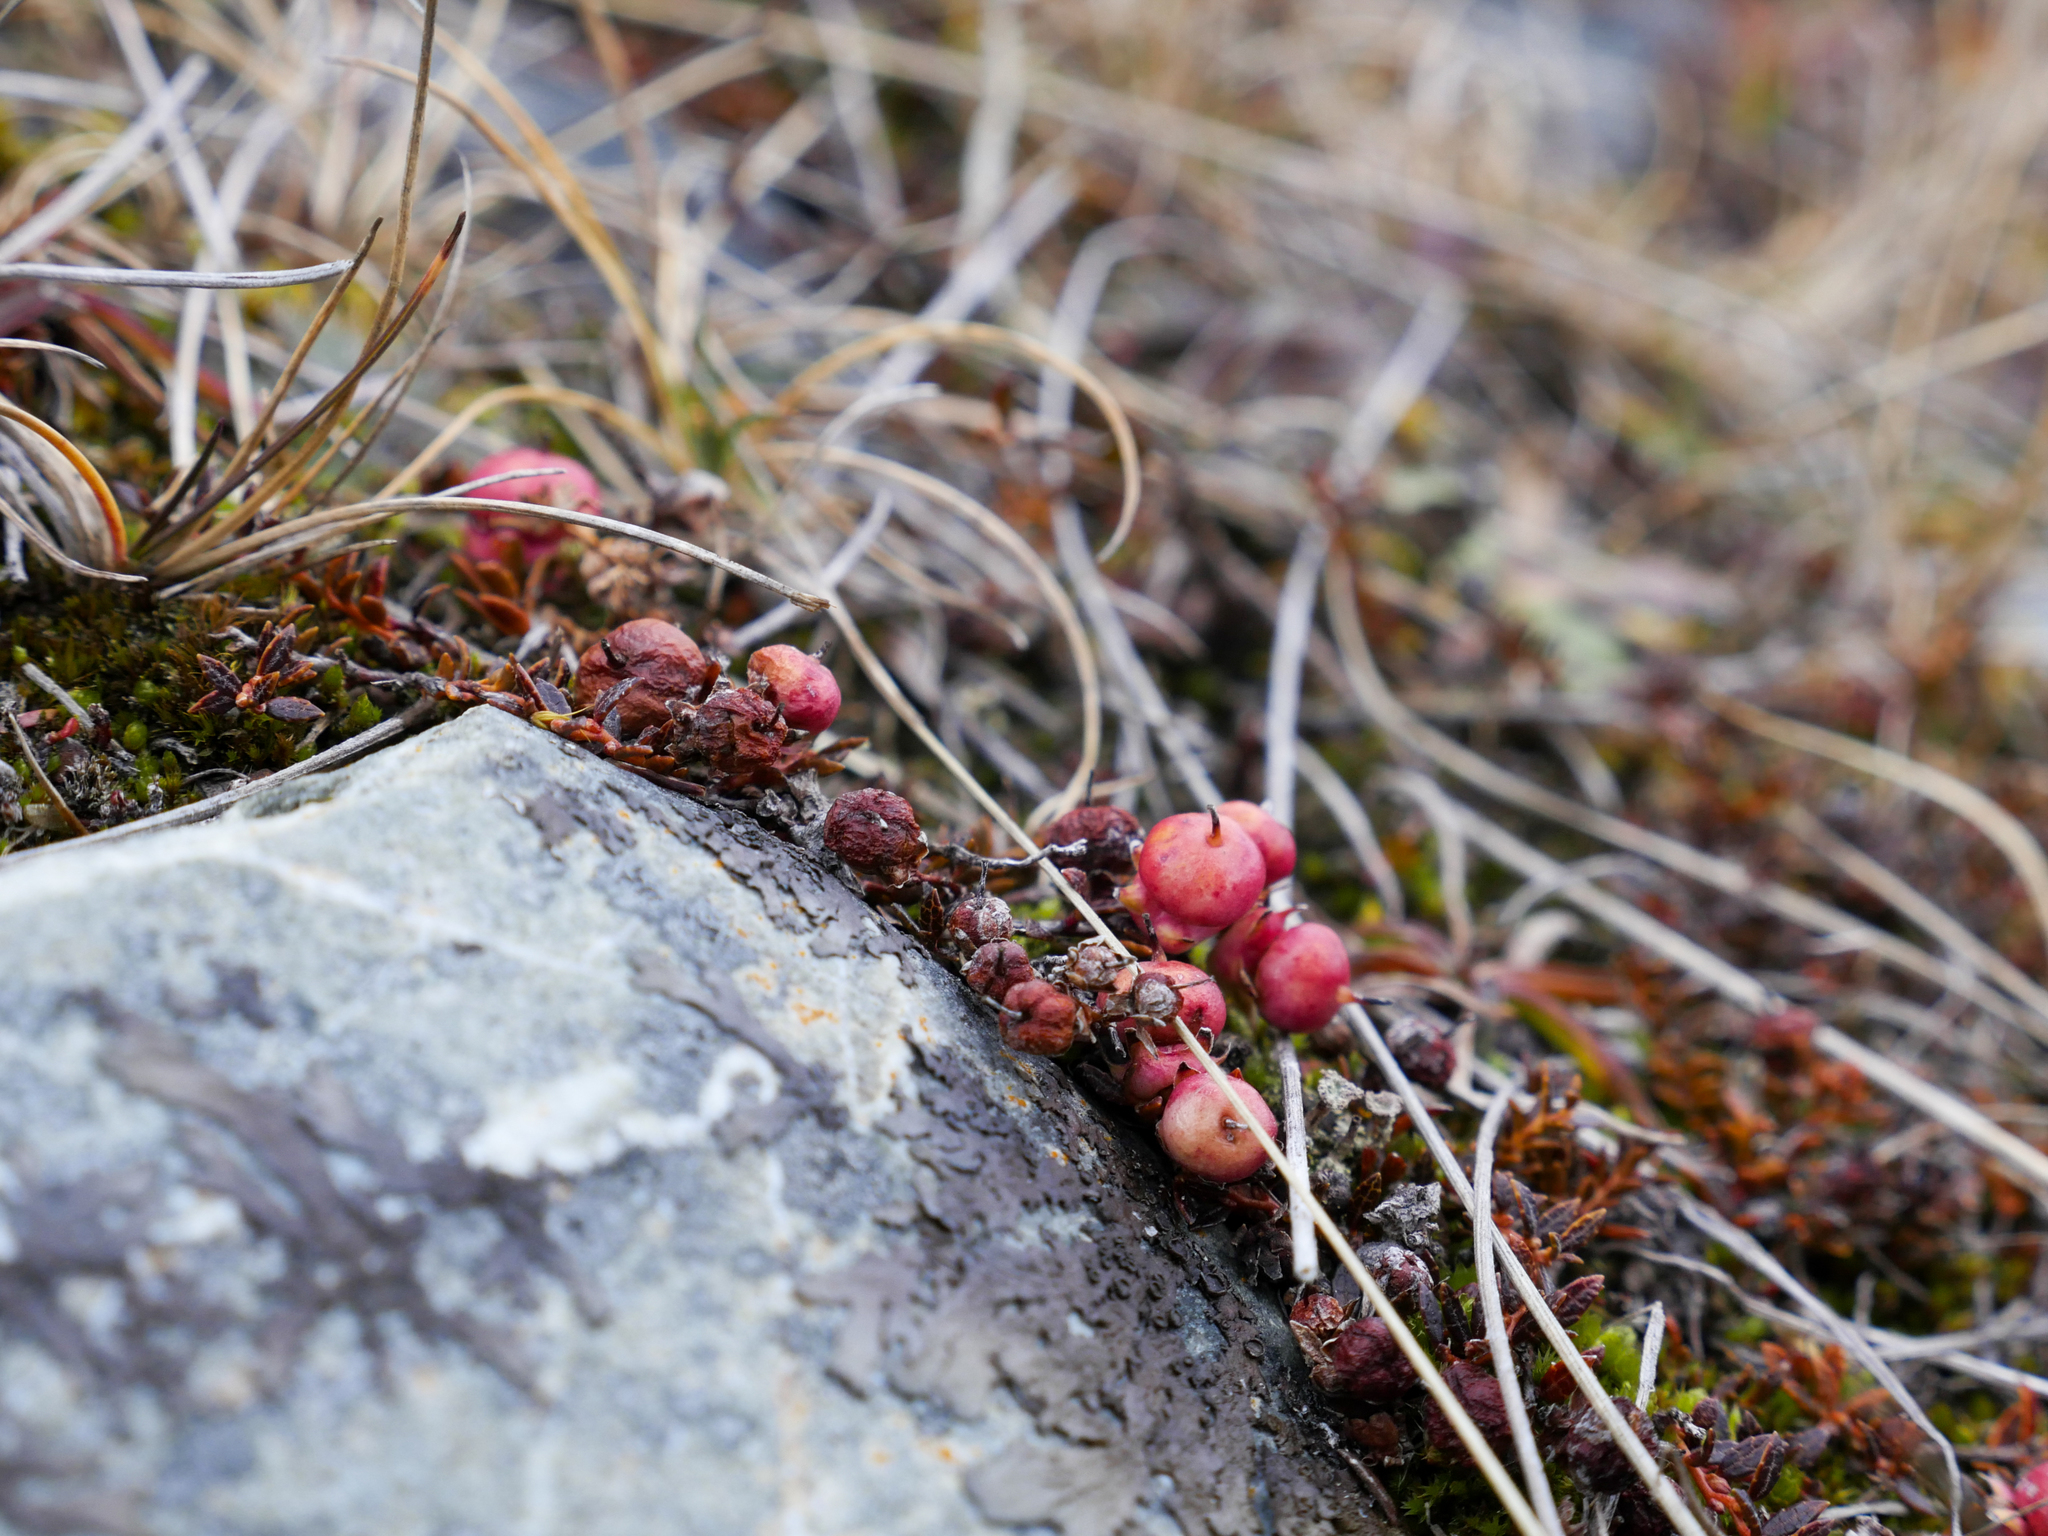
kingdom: Plantae
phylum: Tracheophyta
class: Magnoliopsida
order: Ericales
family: Ericaceae
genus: Gaultheria
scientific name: Gaultheria parvula
